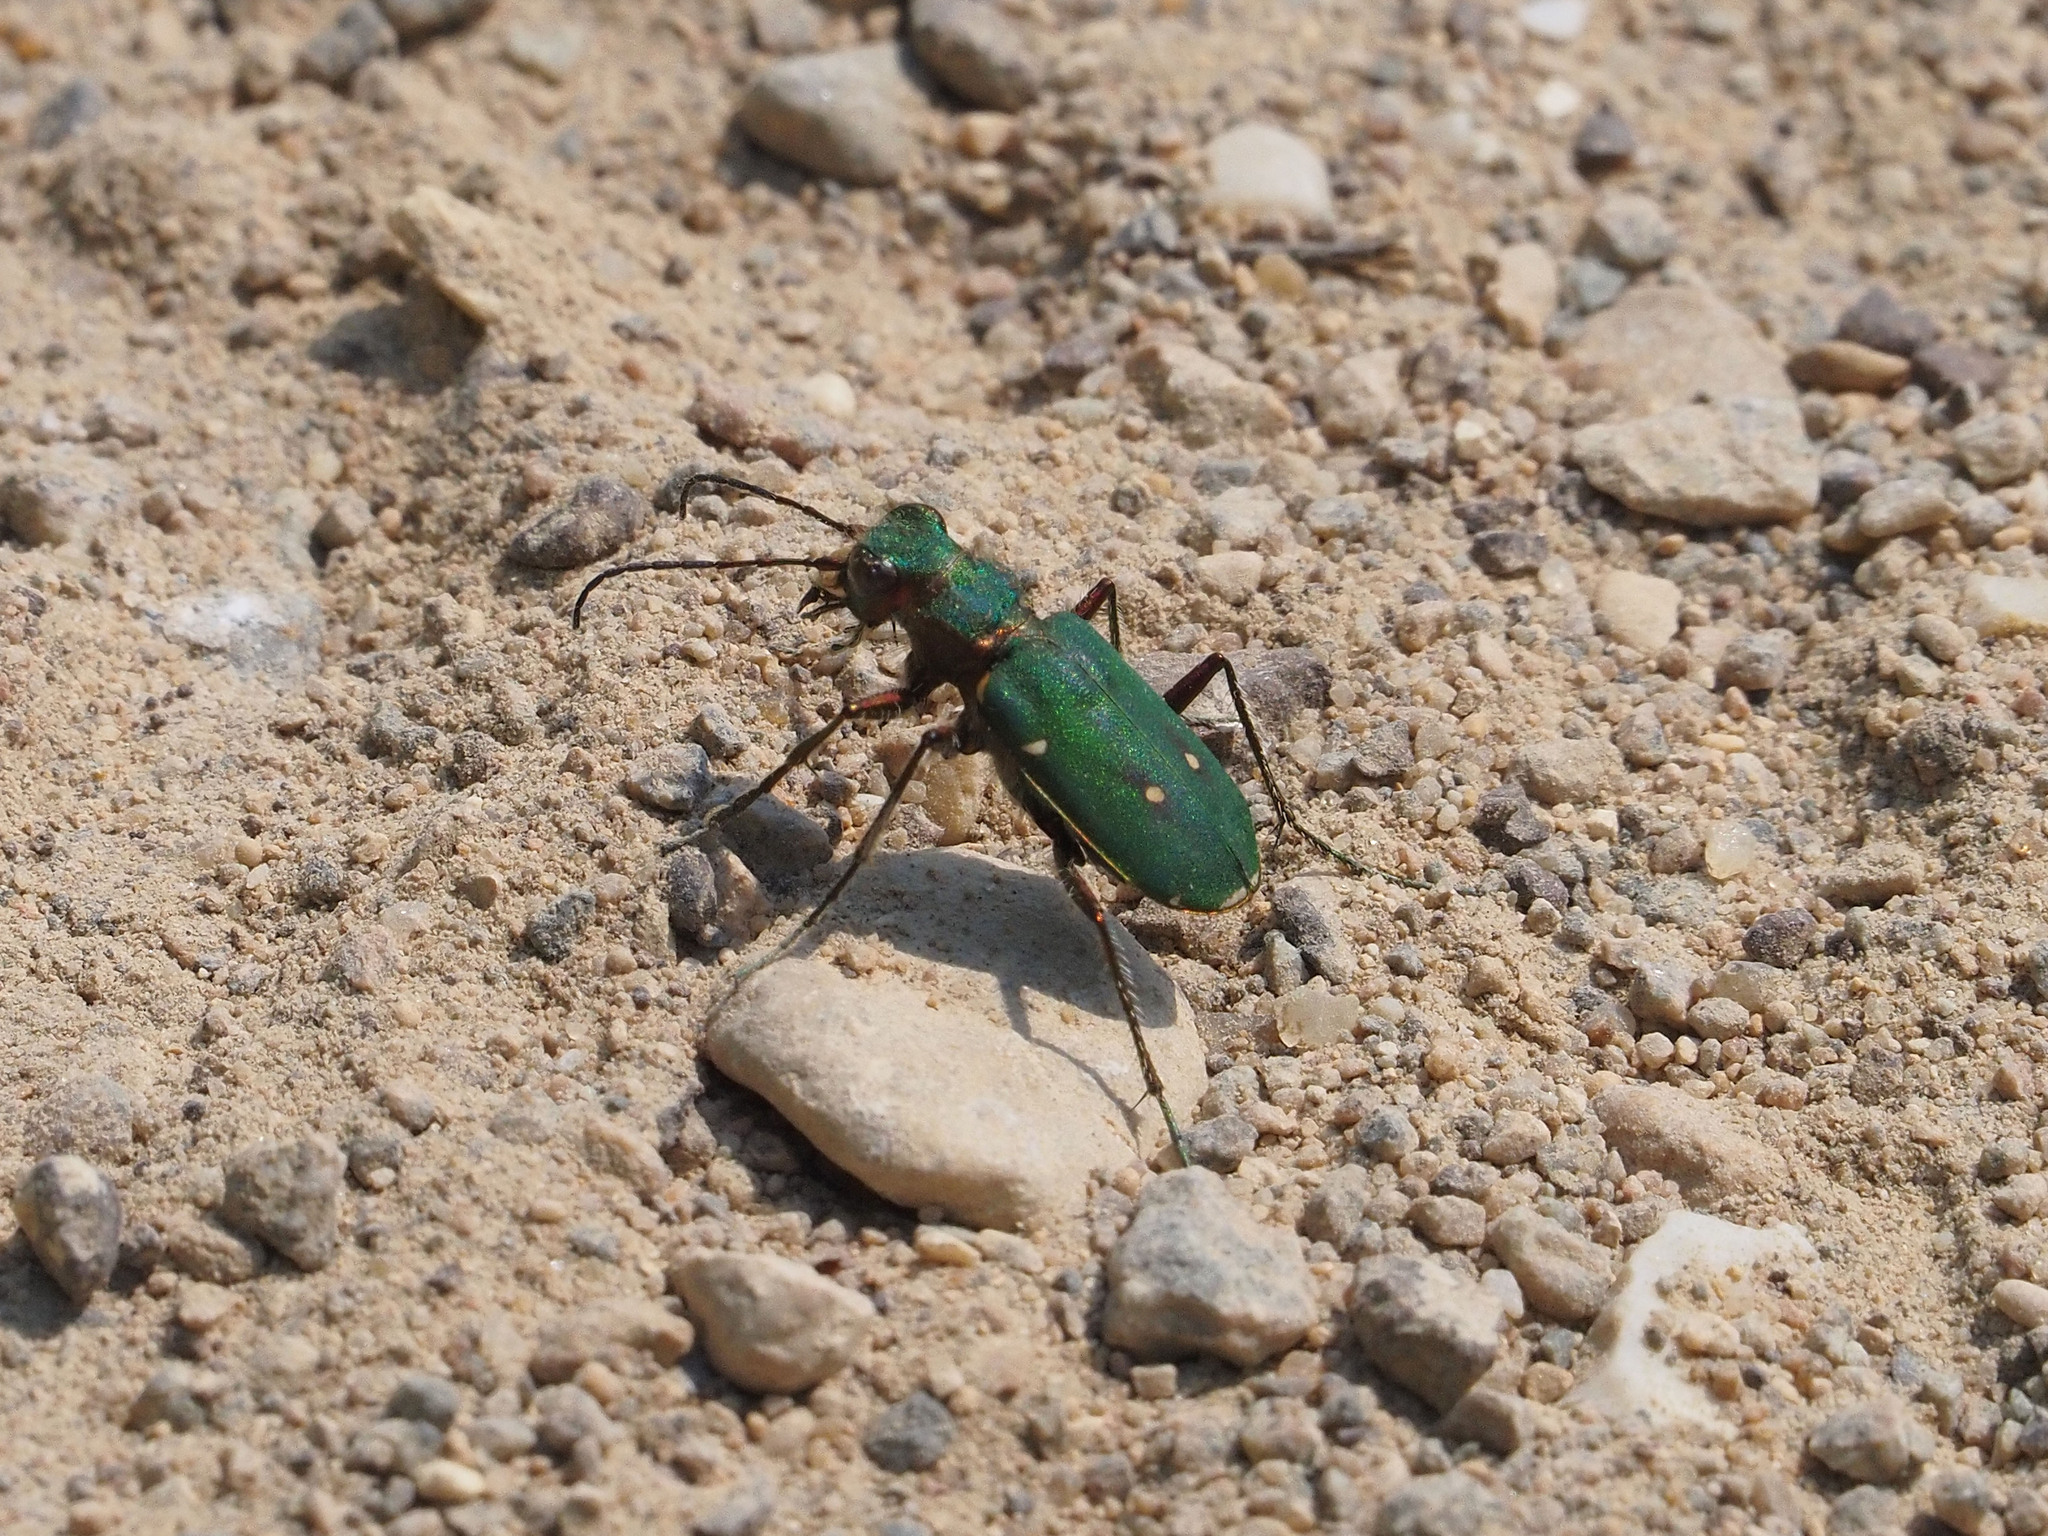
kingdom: Animalia
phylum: Arthropoda
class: Insecta
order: Coleoptera
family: Carabidae
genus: Cicindela
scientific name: Cicindela campestris
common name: Common tiger beetle
